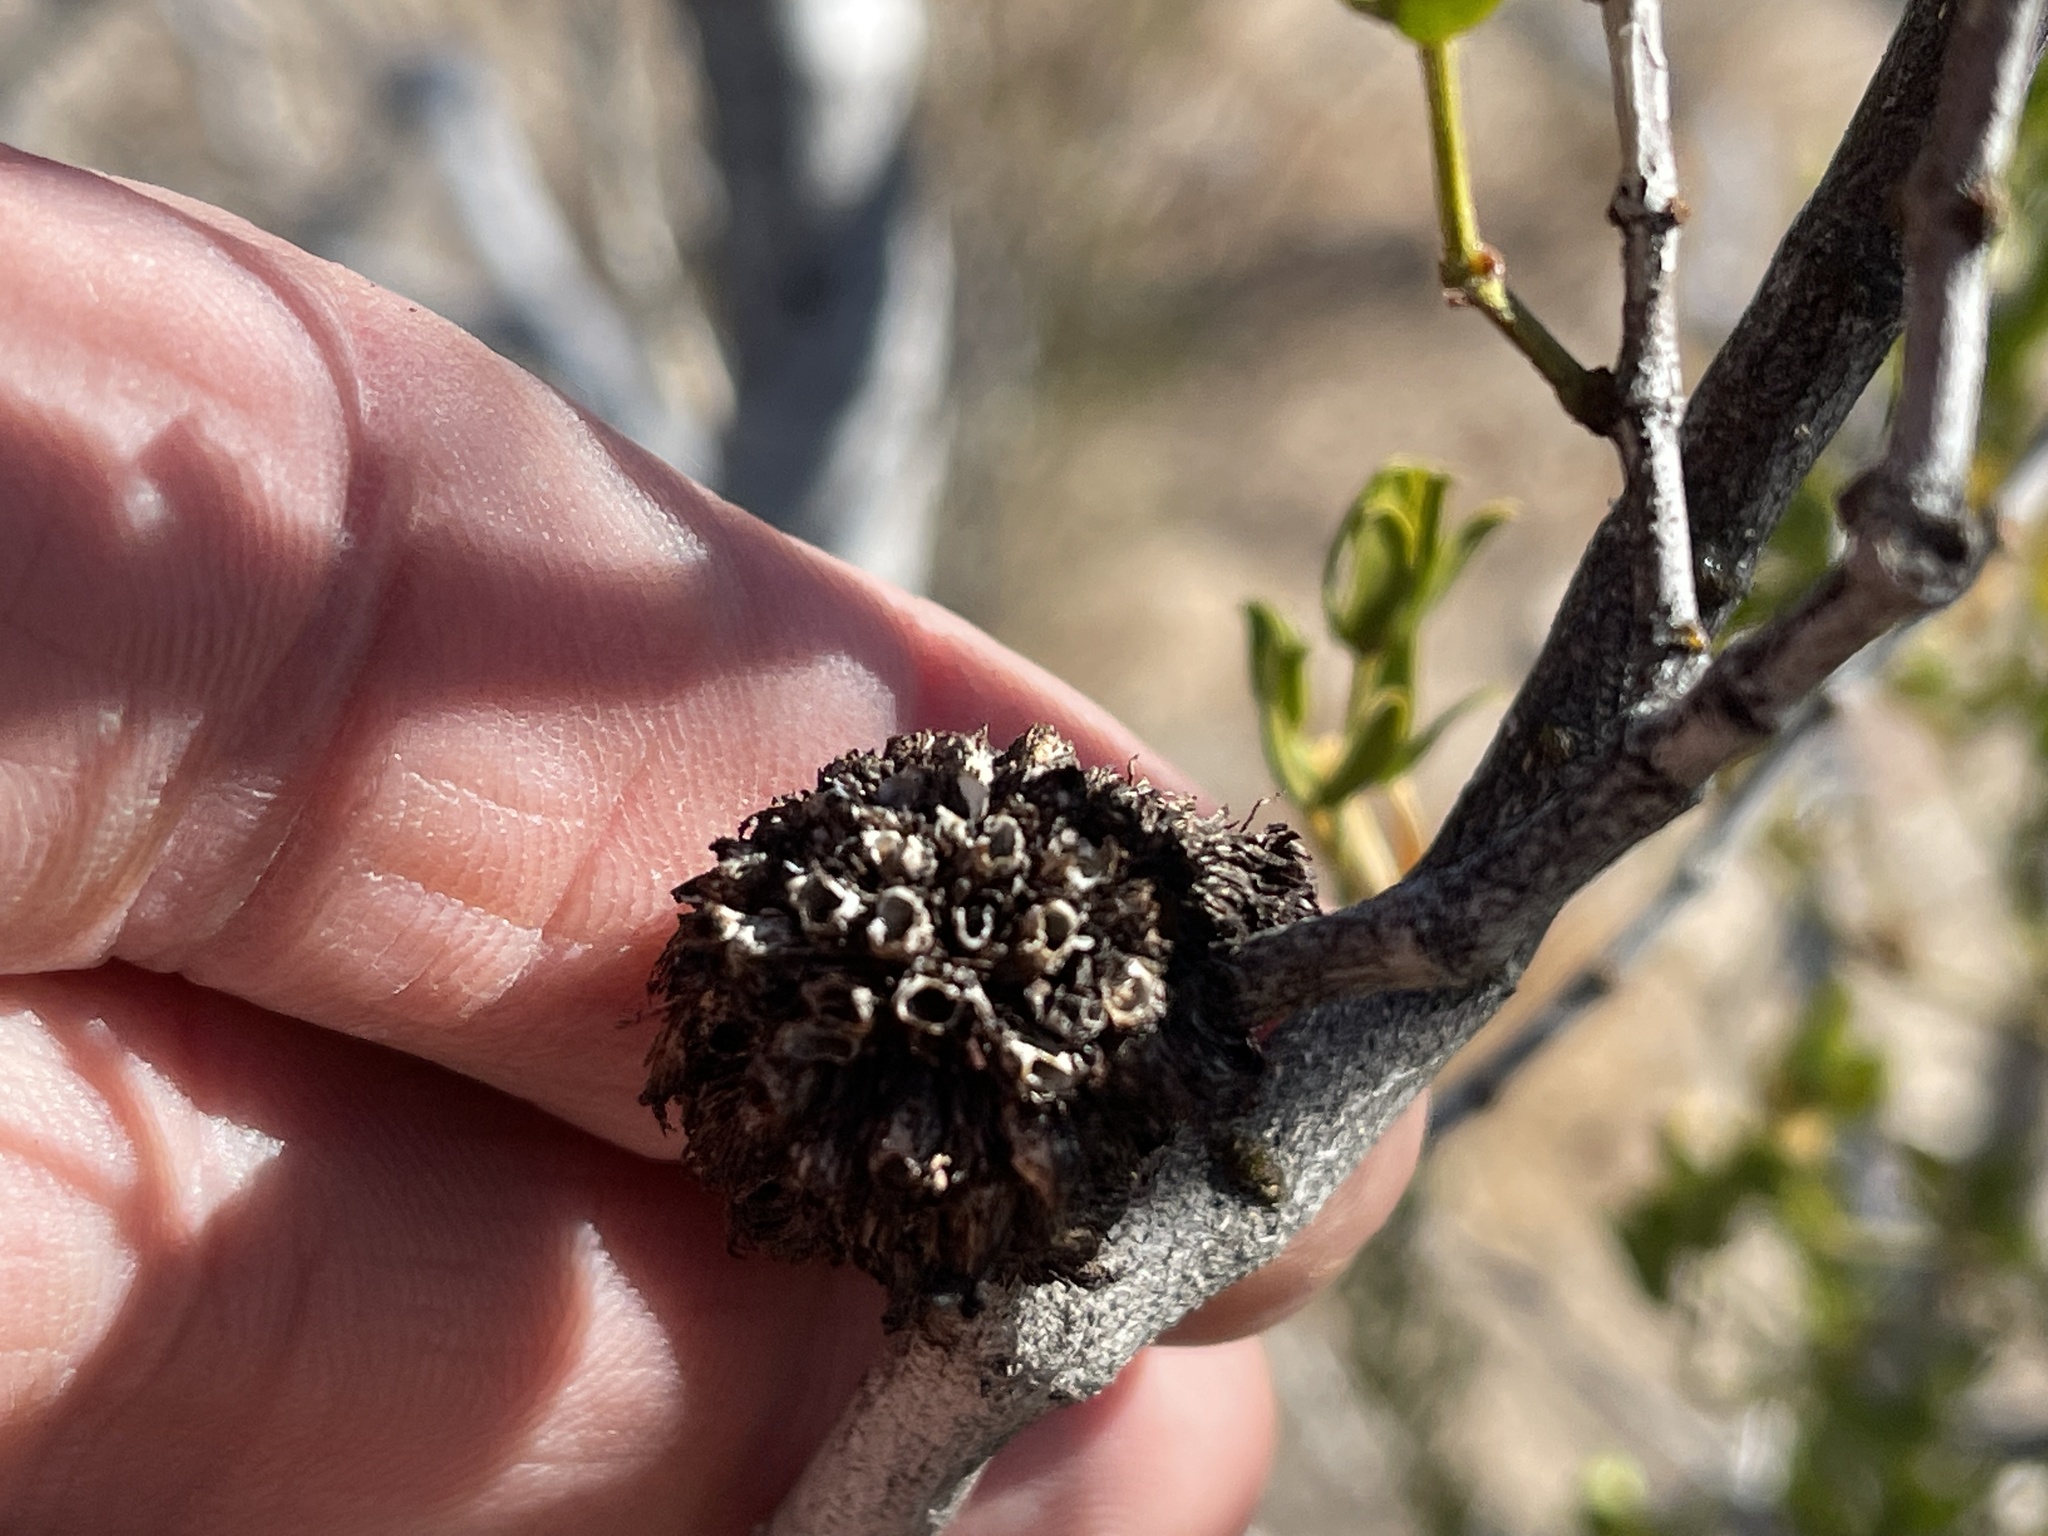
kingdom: Animalia
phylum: Arthropoda
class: Insecta
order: Diptera
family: Cecidomyiidae
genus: Asphondylia
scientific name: Asphondylia auripila
